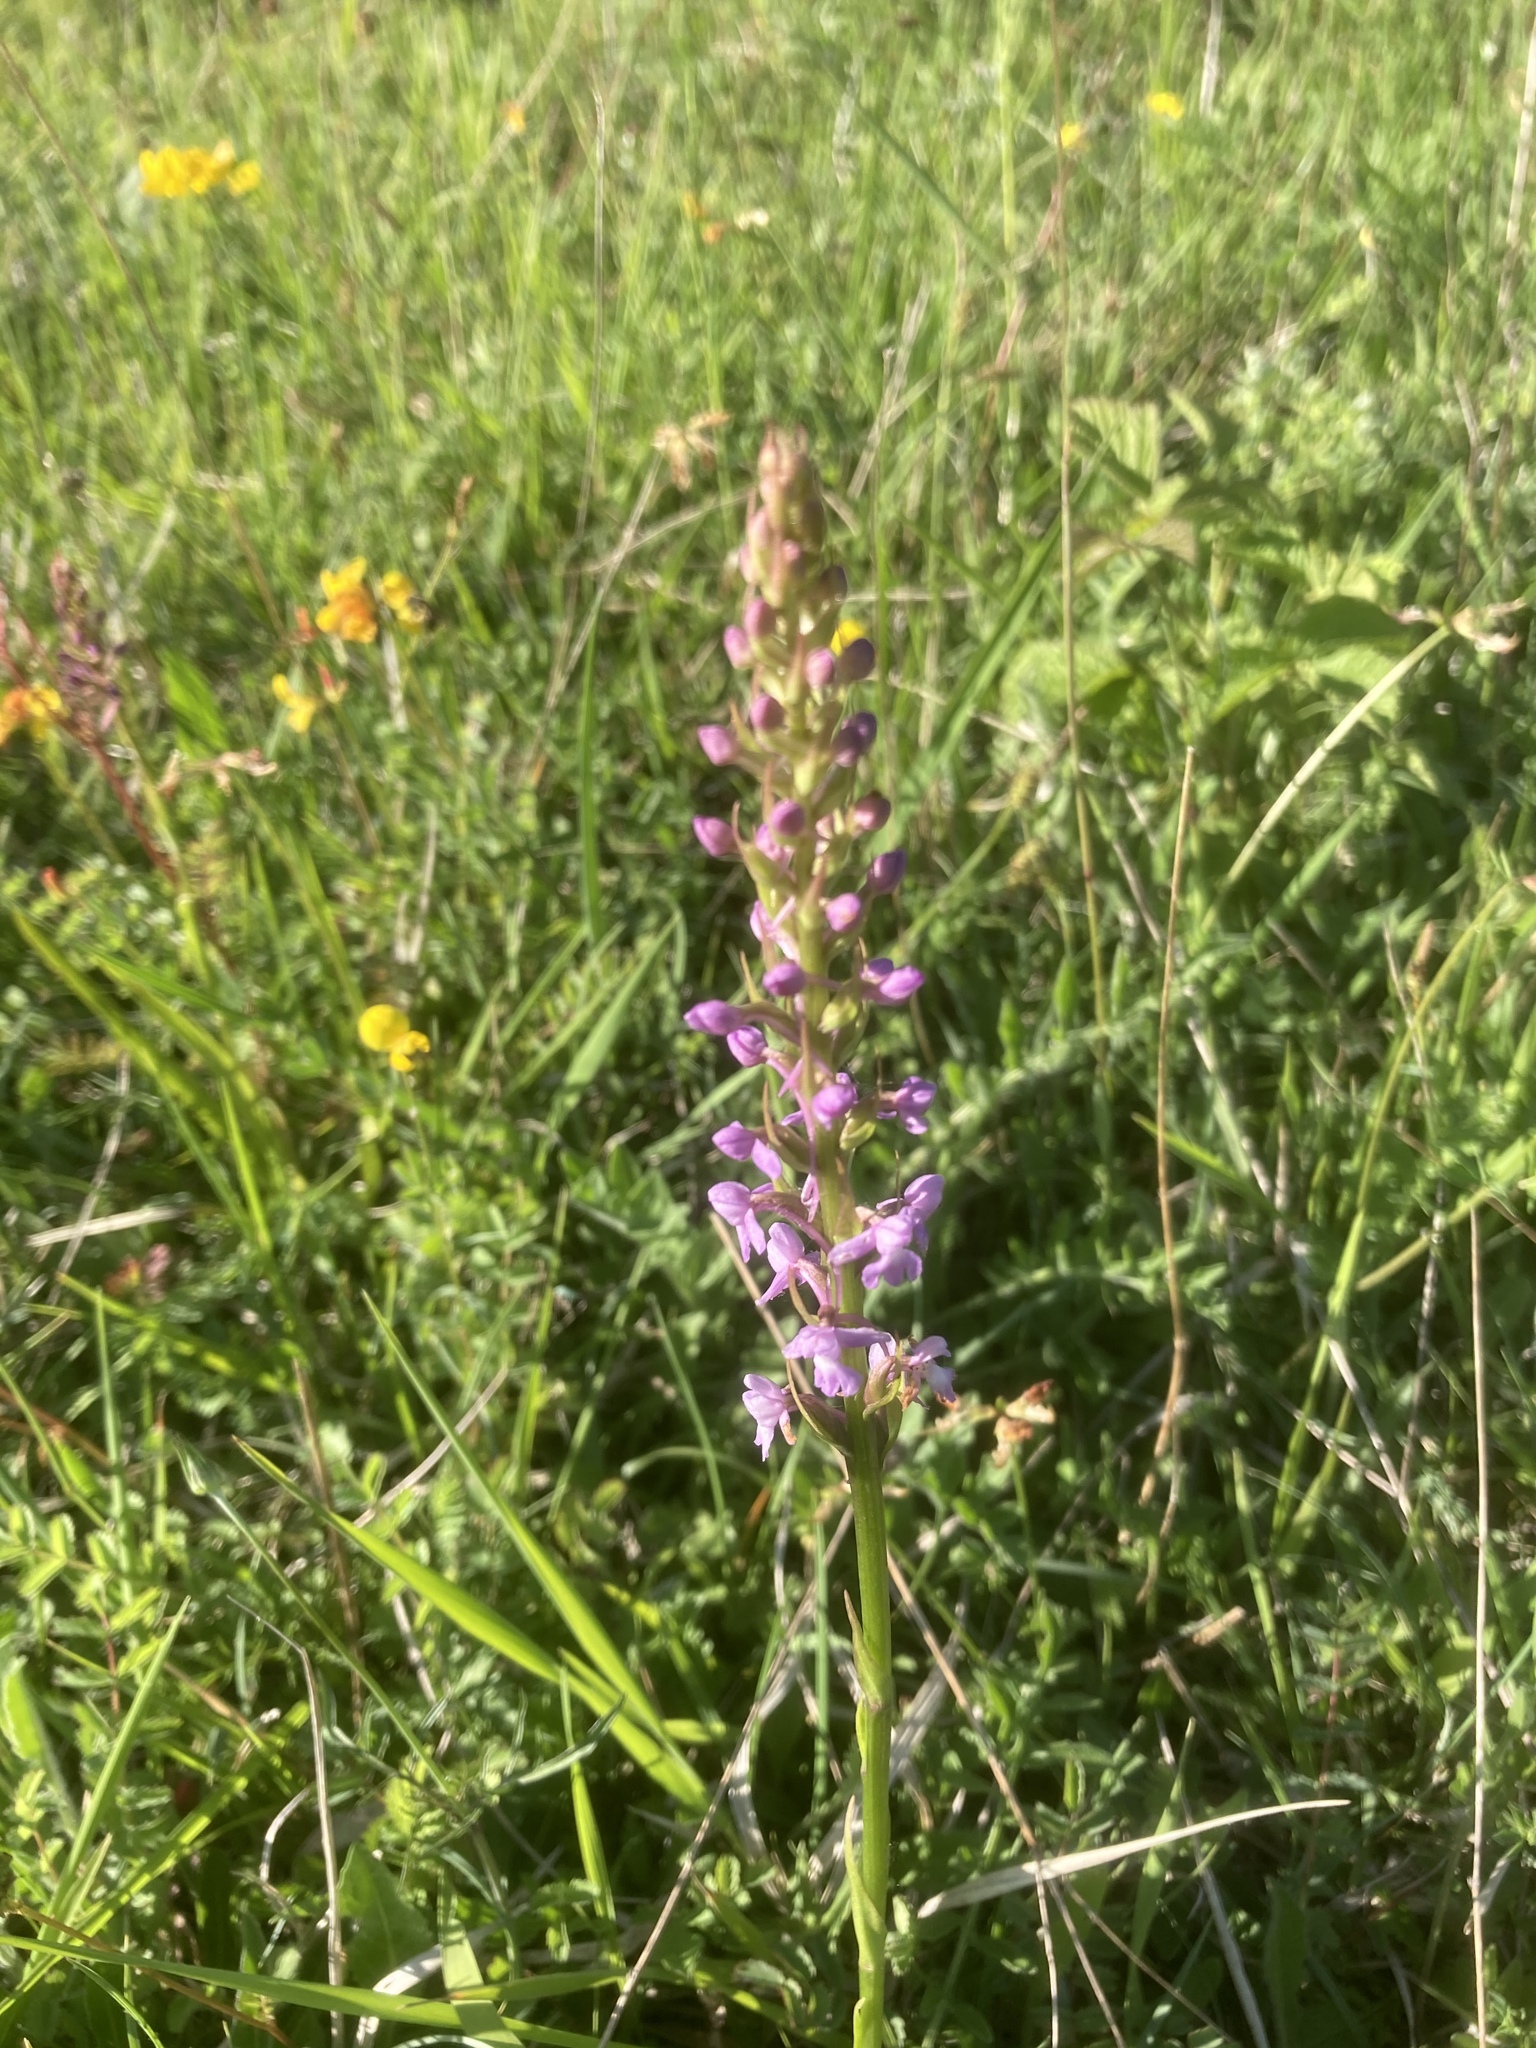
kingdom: Plantae
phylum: Tracheophyta
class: Liliopsida
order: Asparagales
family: Orchidaceae
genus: Gymnadenia
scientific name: Gymnadenia conopsea
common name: Fragrant orchid
